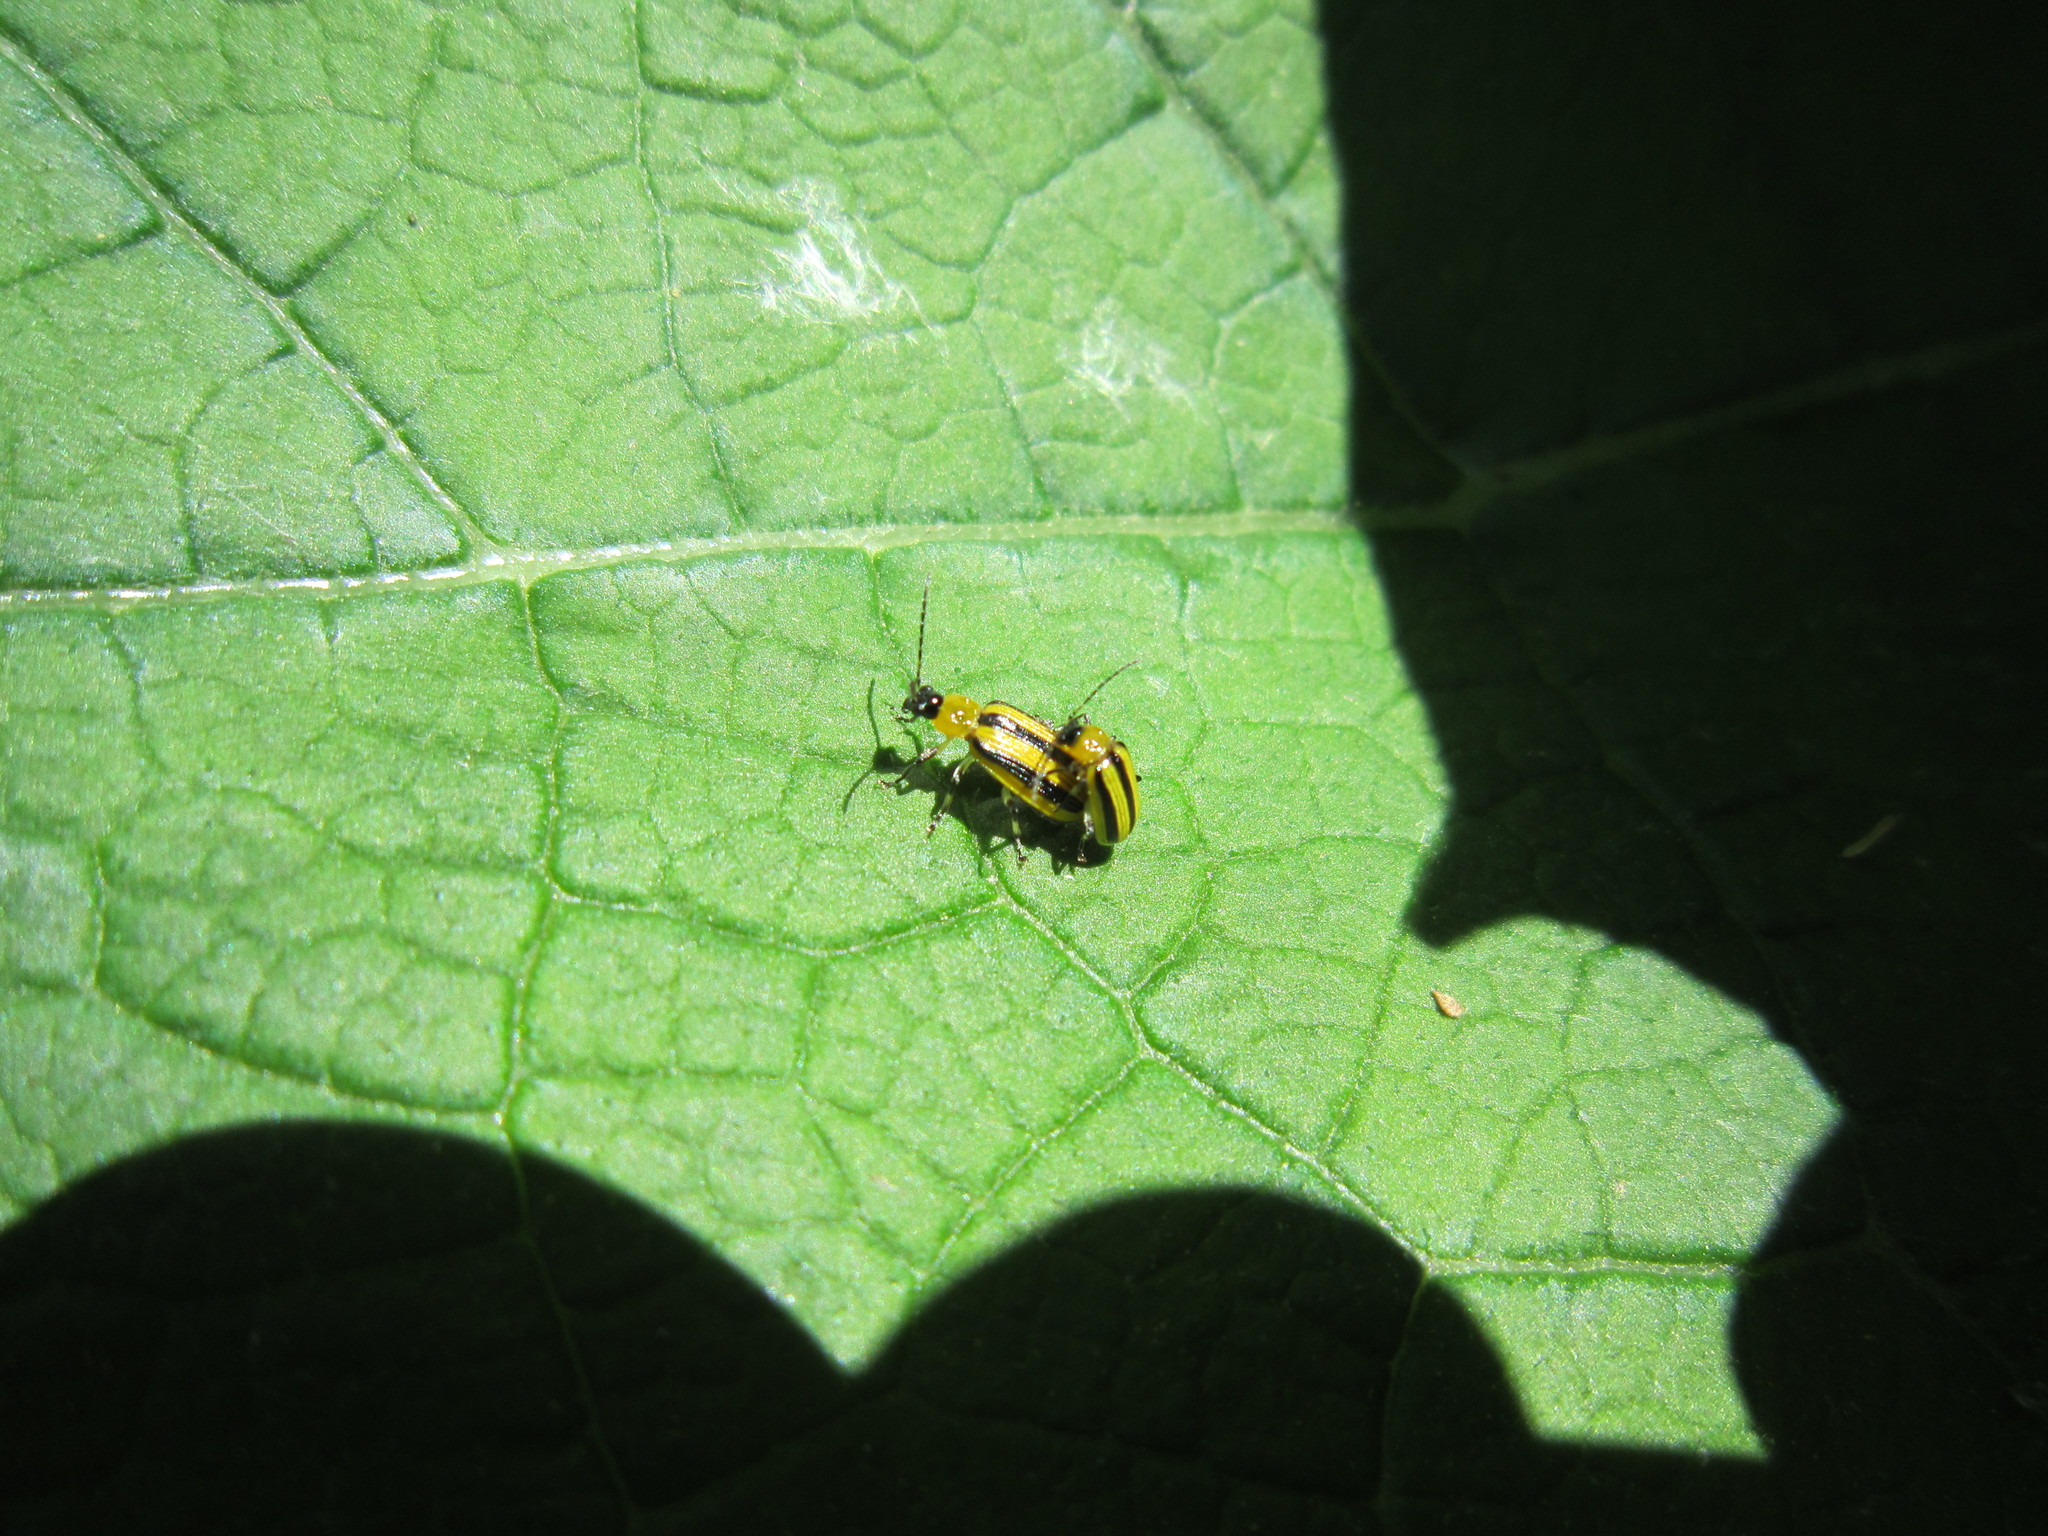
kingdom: Animalia
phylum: Arthropoda
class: Insecta
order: Coleoptera
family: Chrysomelidae
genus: Acalymma
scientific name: Acalymma vittatum
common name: Striped cucumber beetle
